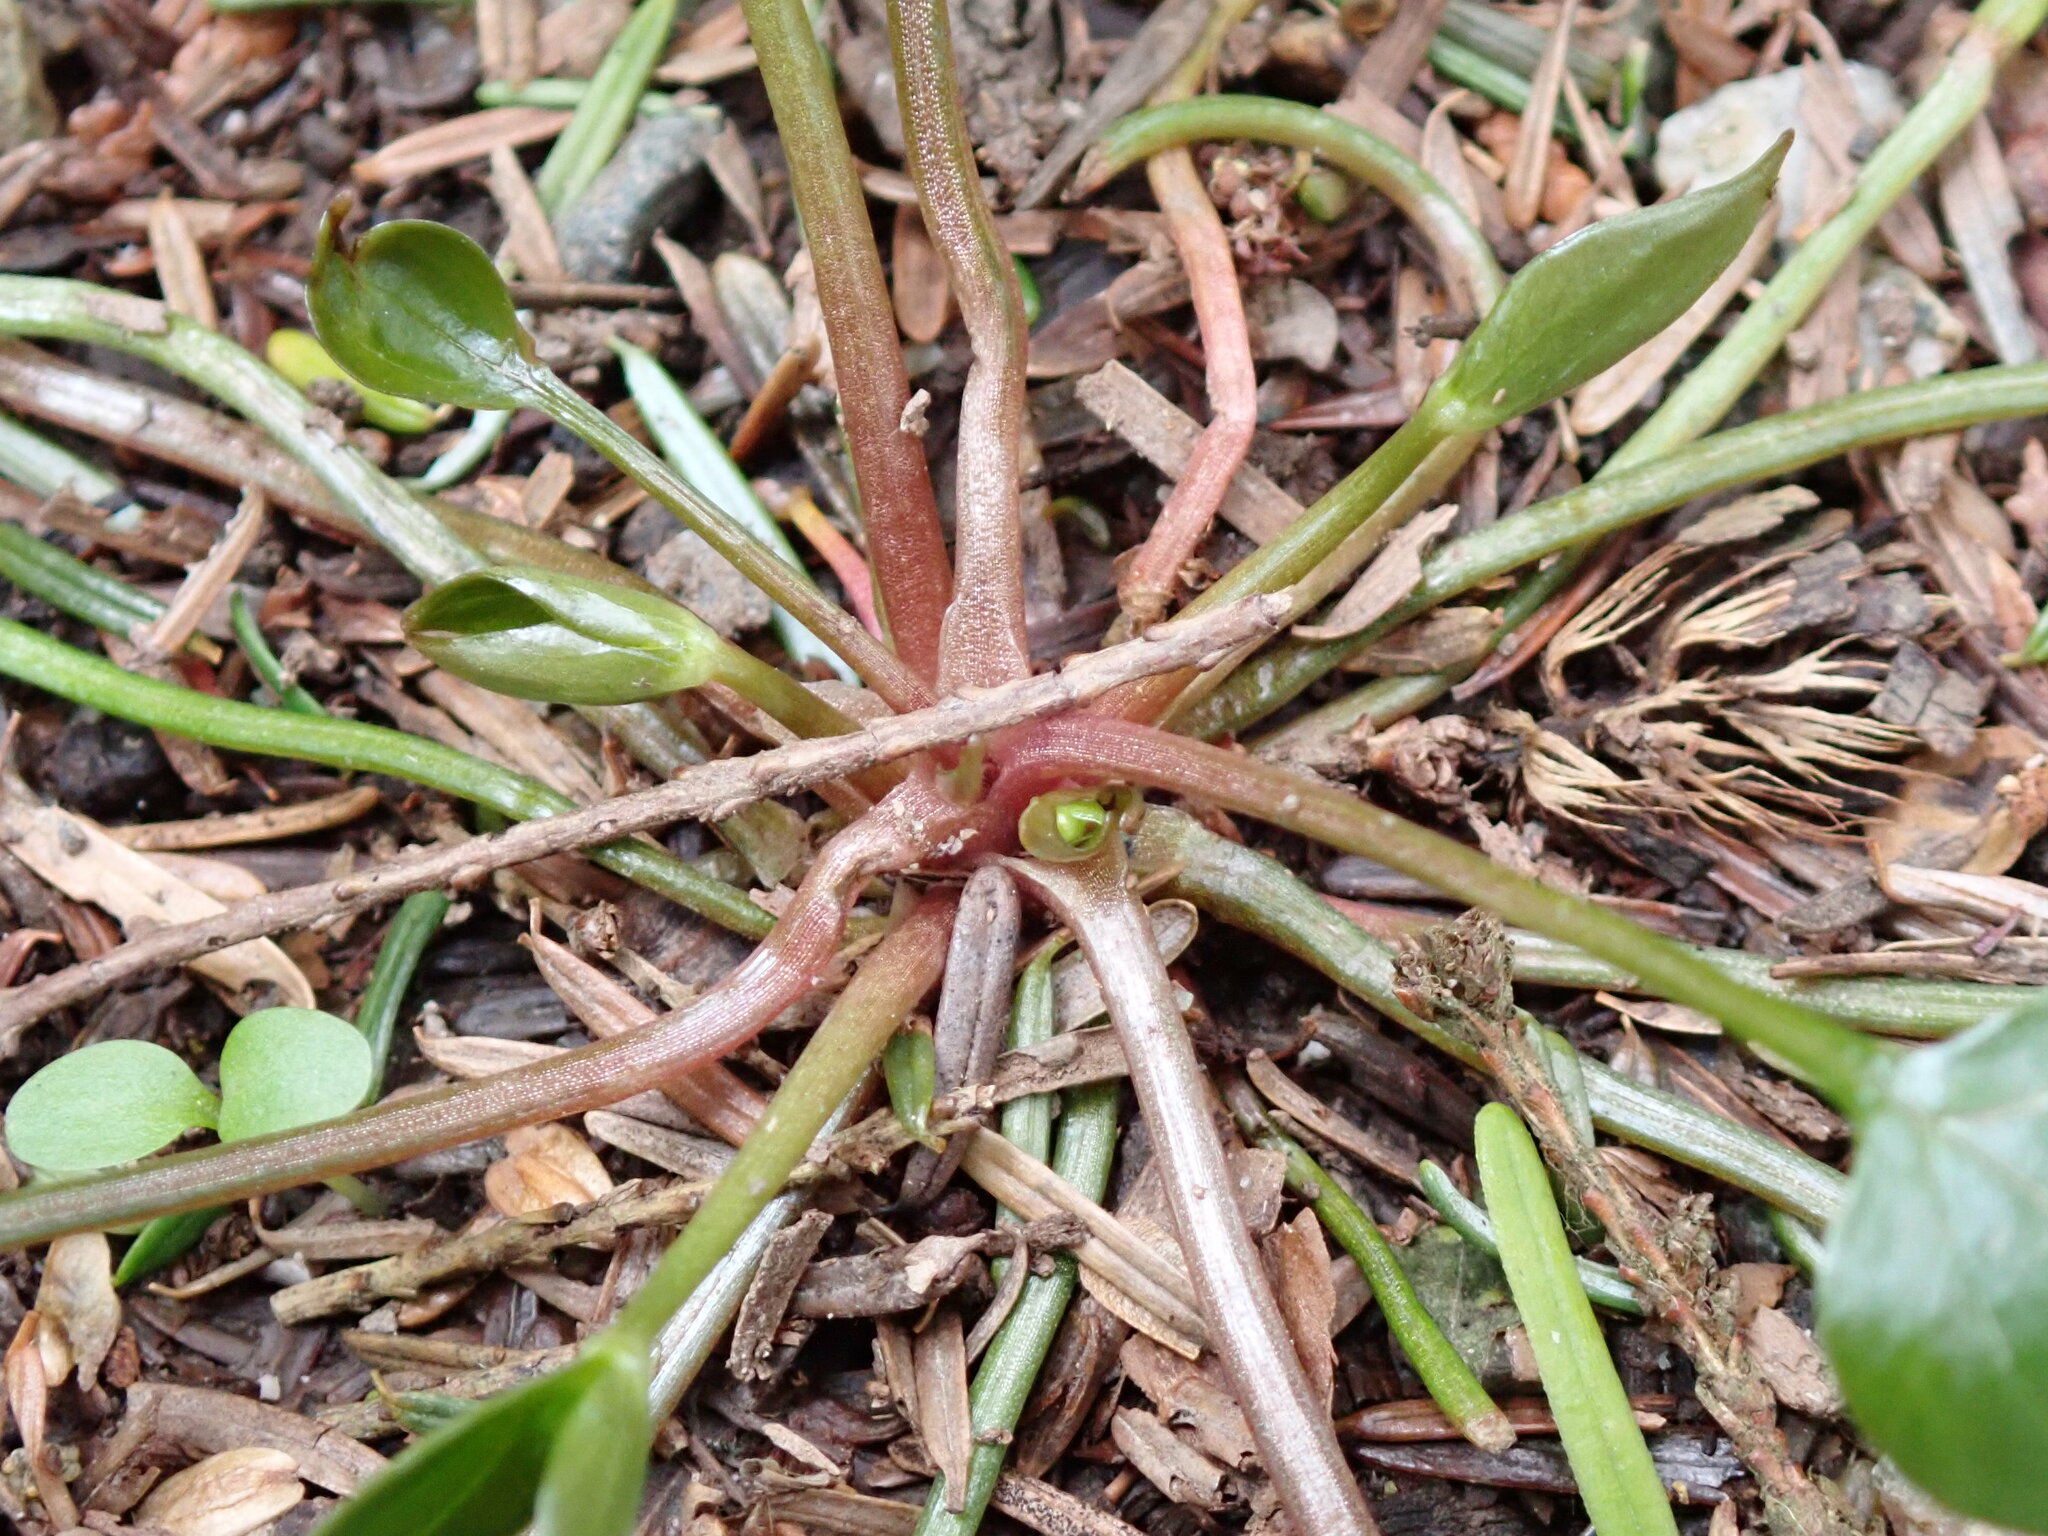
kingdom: Plantae
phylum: Tracheophyta
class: Magnoliopsida
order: Caryophyllales
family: Montiaceae
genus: Claytonia
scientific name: Claytonia sibirica
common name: Pink purslane
